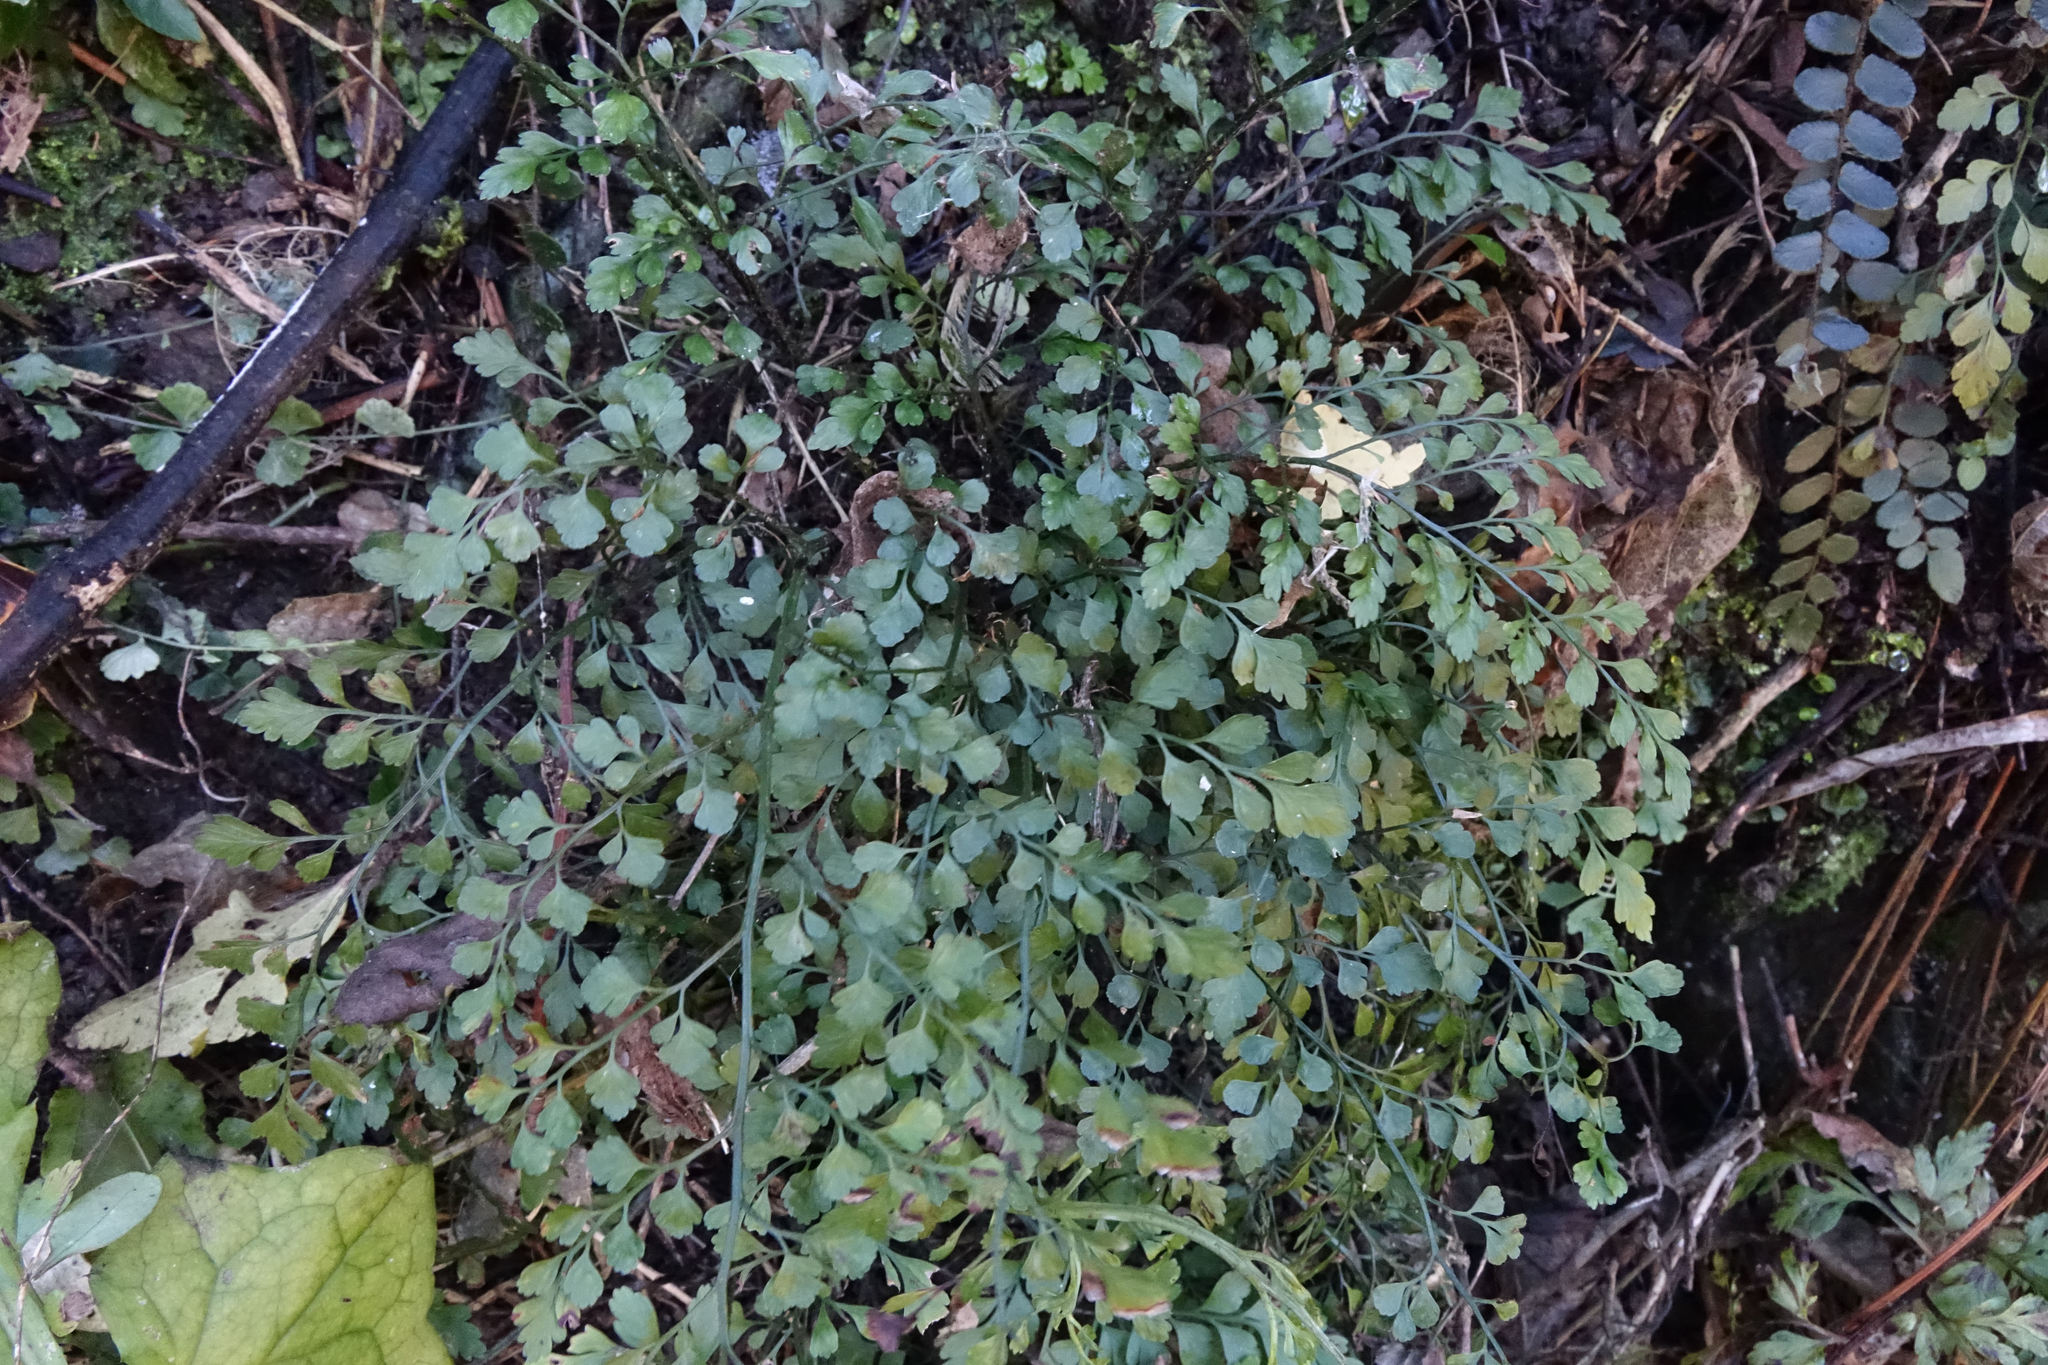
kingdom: Plantae
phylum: Tracheophyta
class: Polypodiopsida
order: Polypodiales
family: Aspleniaceae
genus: Asplenium
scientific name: Asplenium hookerianum
